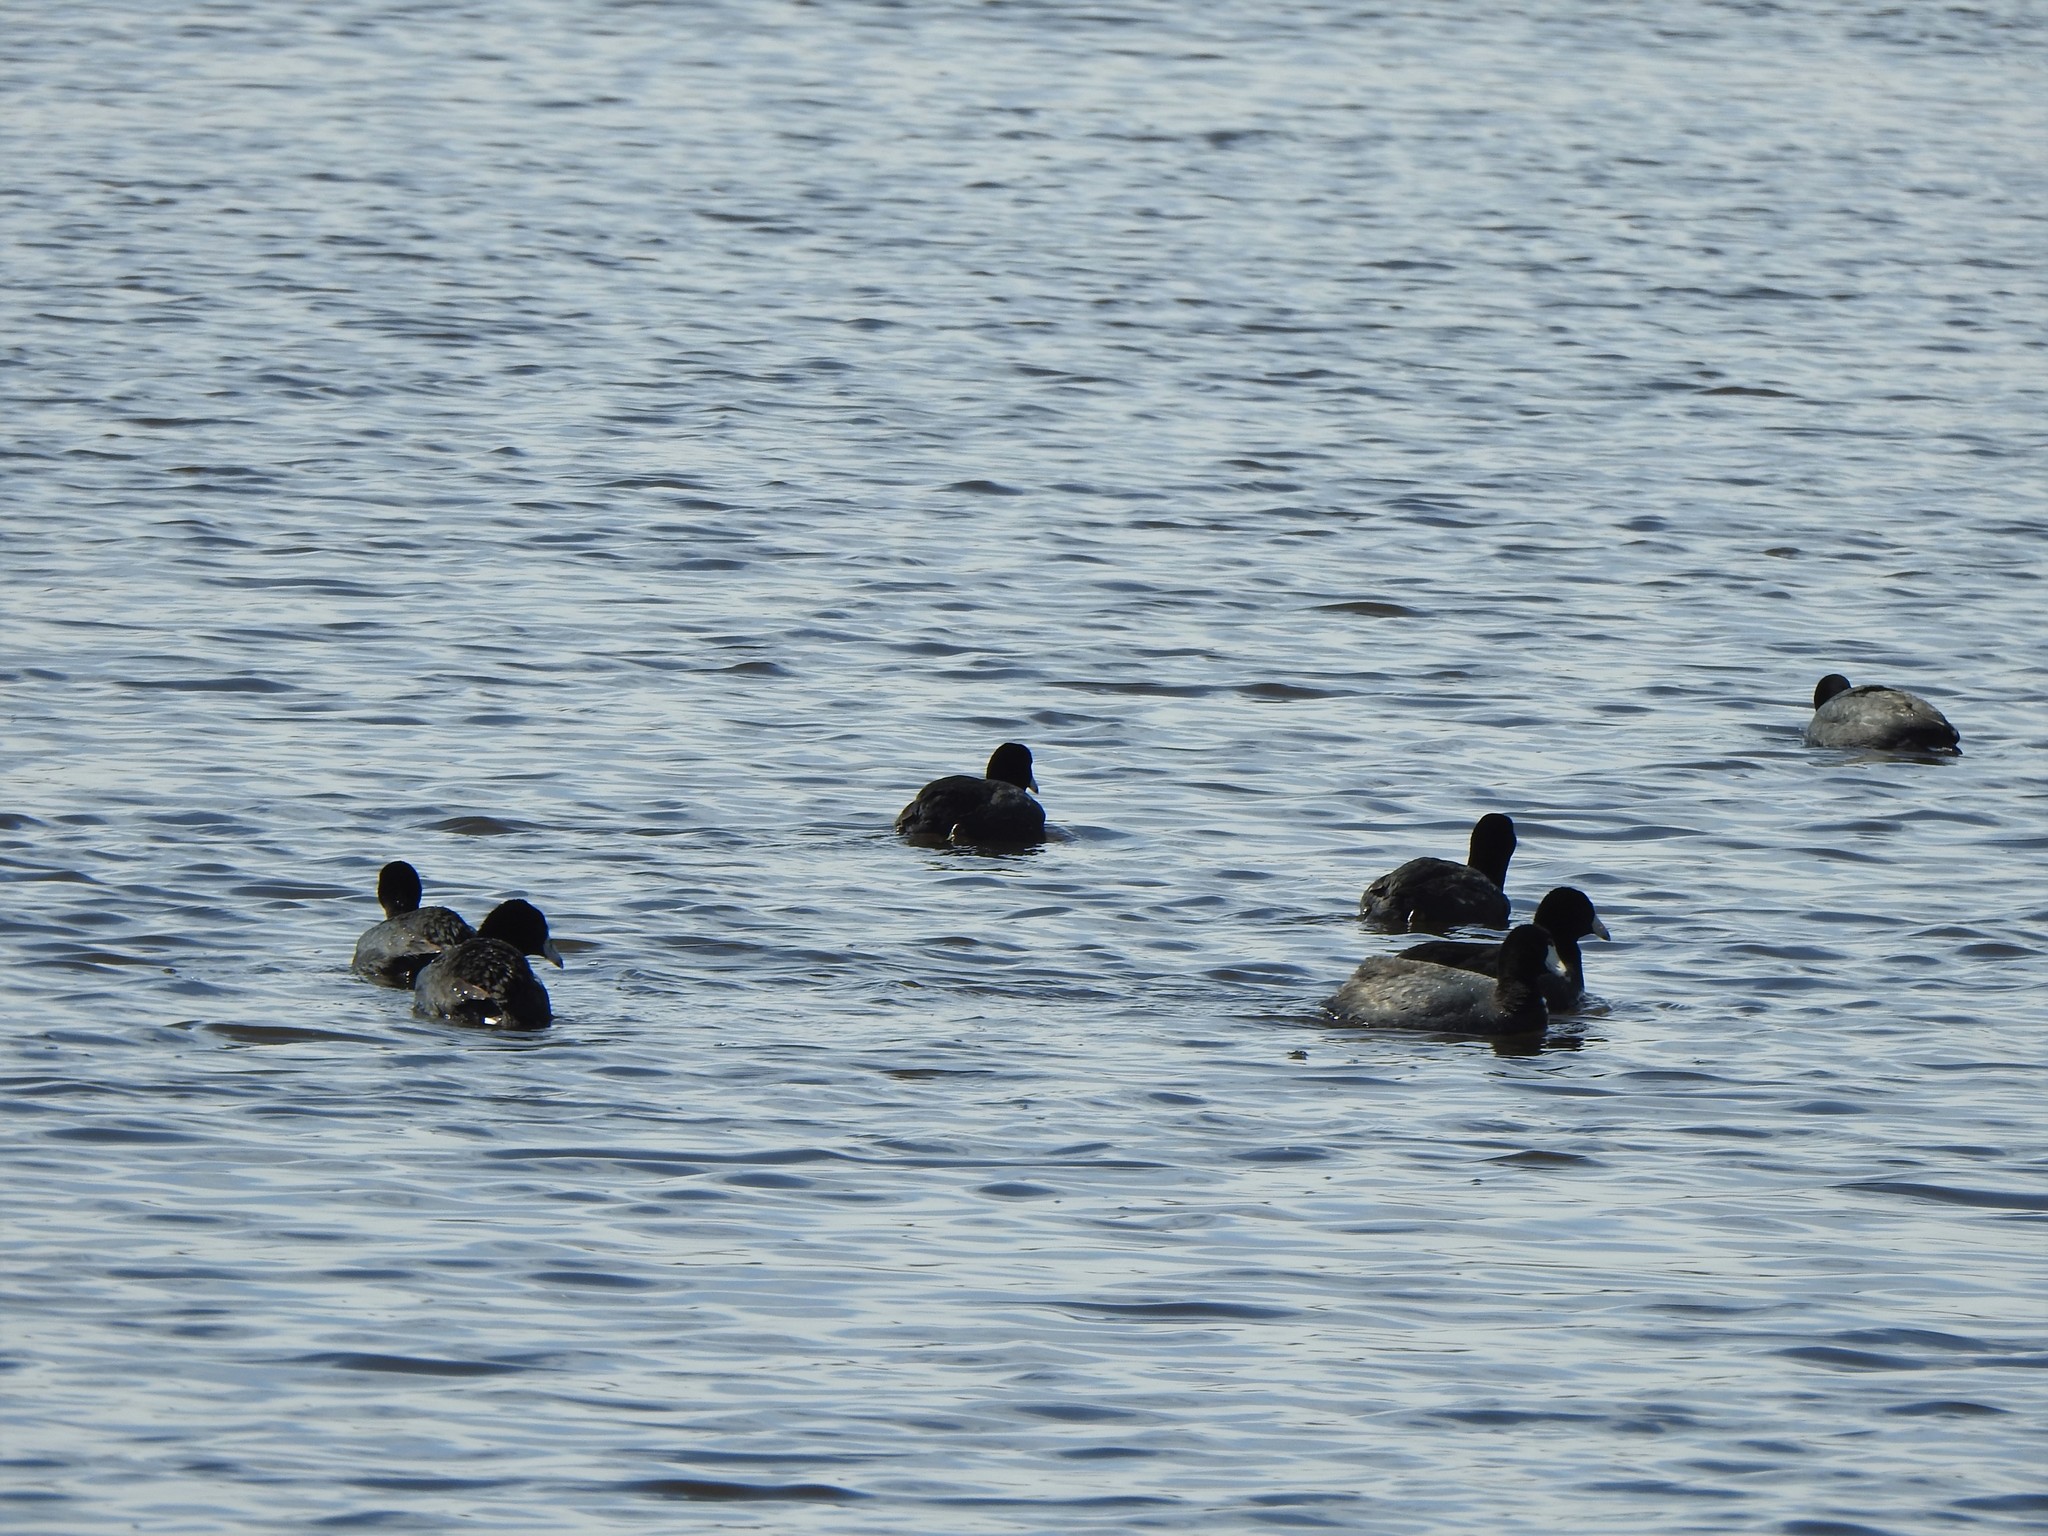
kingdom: Animalia
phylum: Chordata
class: Aves
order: Gruiformes
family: Rallidae
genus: Fulica
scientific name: Fulica americana
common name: American coot
